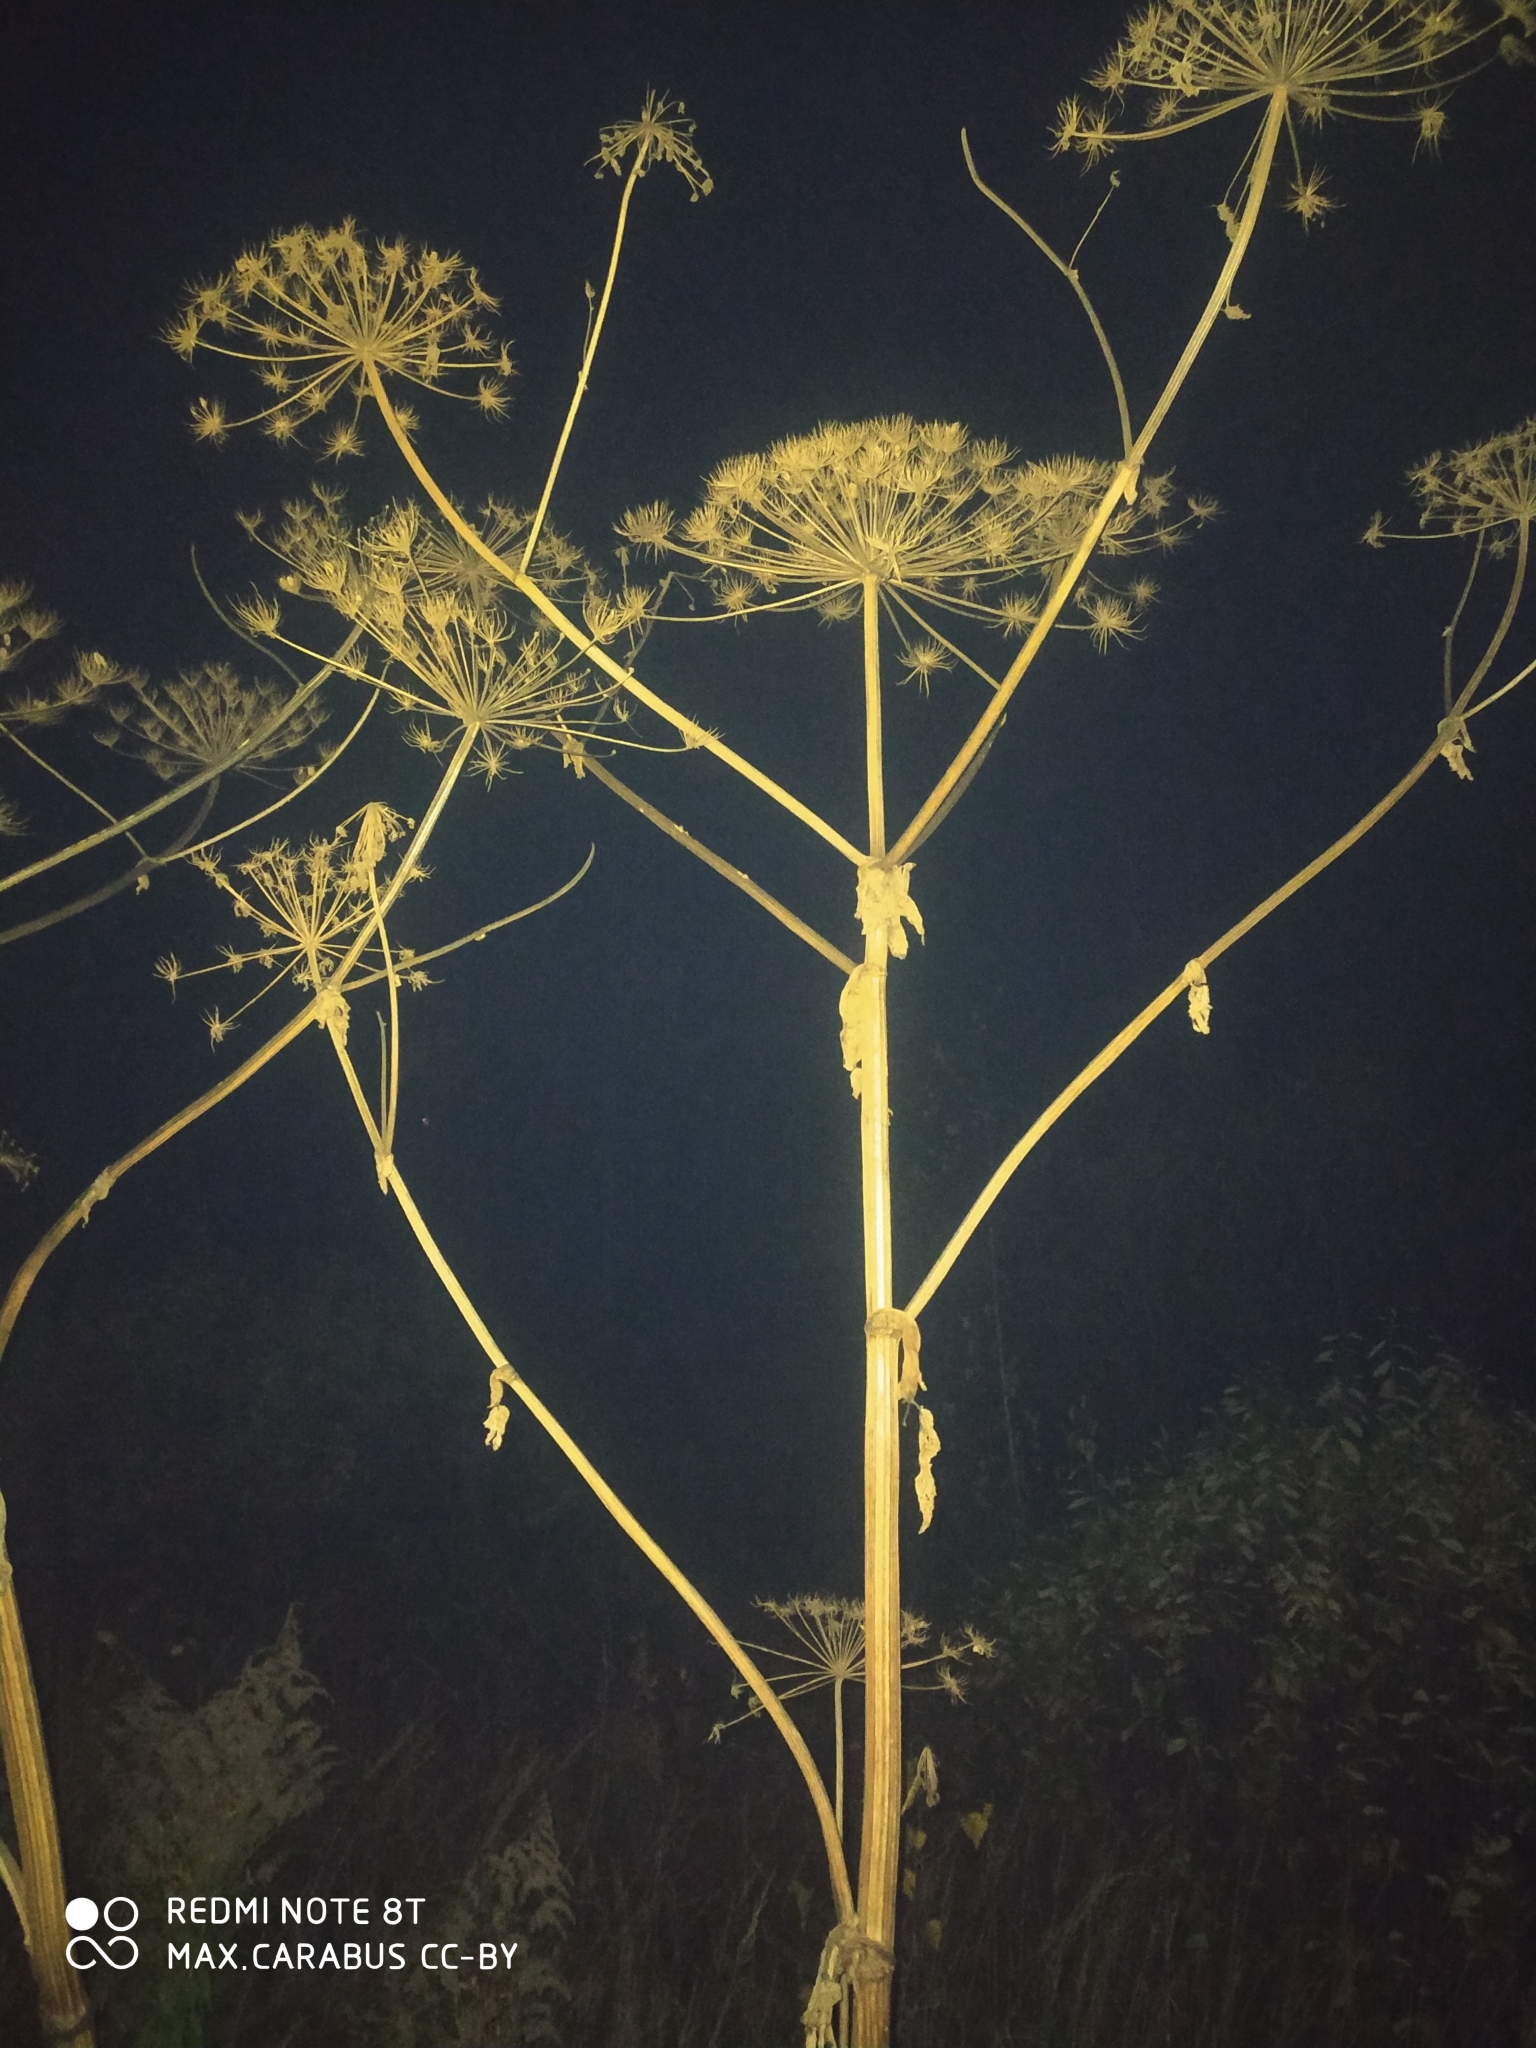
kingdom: Plantae
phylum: Tracheophyta
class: Magnoliopsida
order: Apiales
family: Apiaceae
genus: Heracleum
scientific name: Heracleum sosnowskyi
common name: Sosnowsky's hogweed
